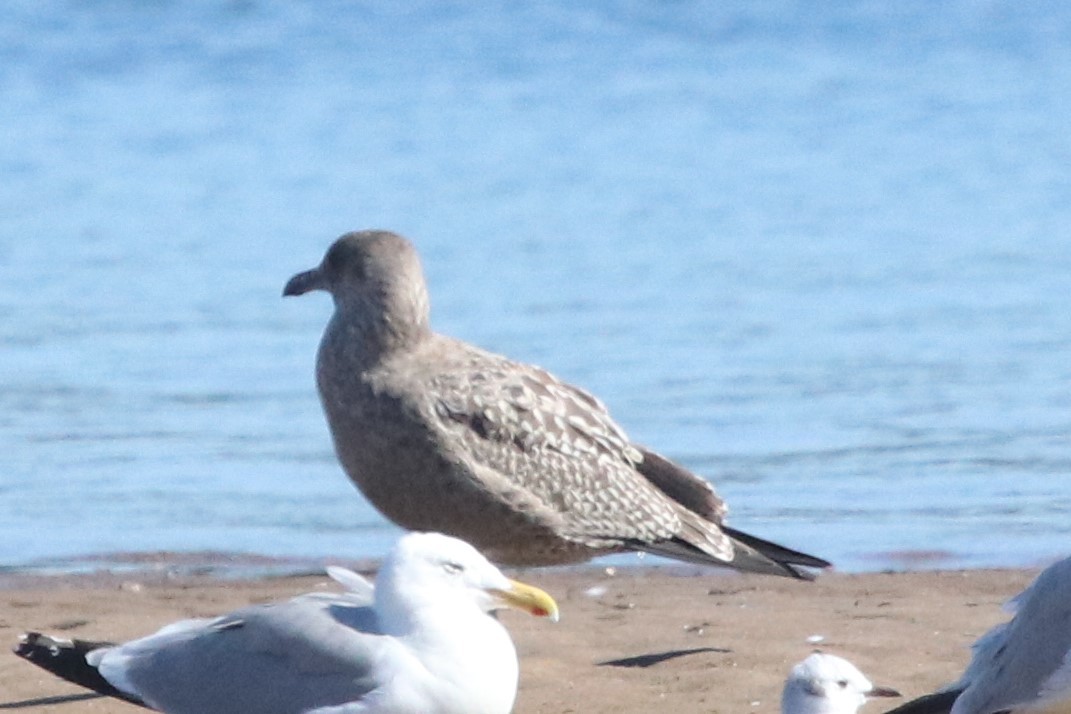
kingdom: Animalia
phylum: Chordata
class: Aves
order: Charadriiformes
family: Laridae
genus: Larus
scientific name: Larus argentatus
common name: Herring gull
